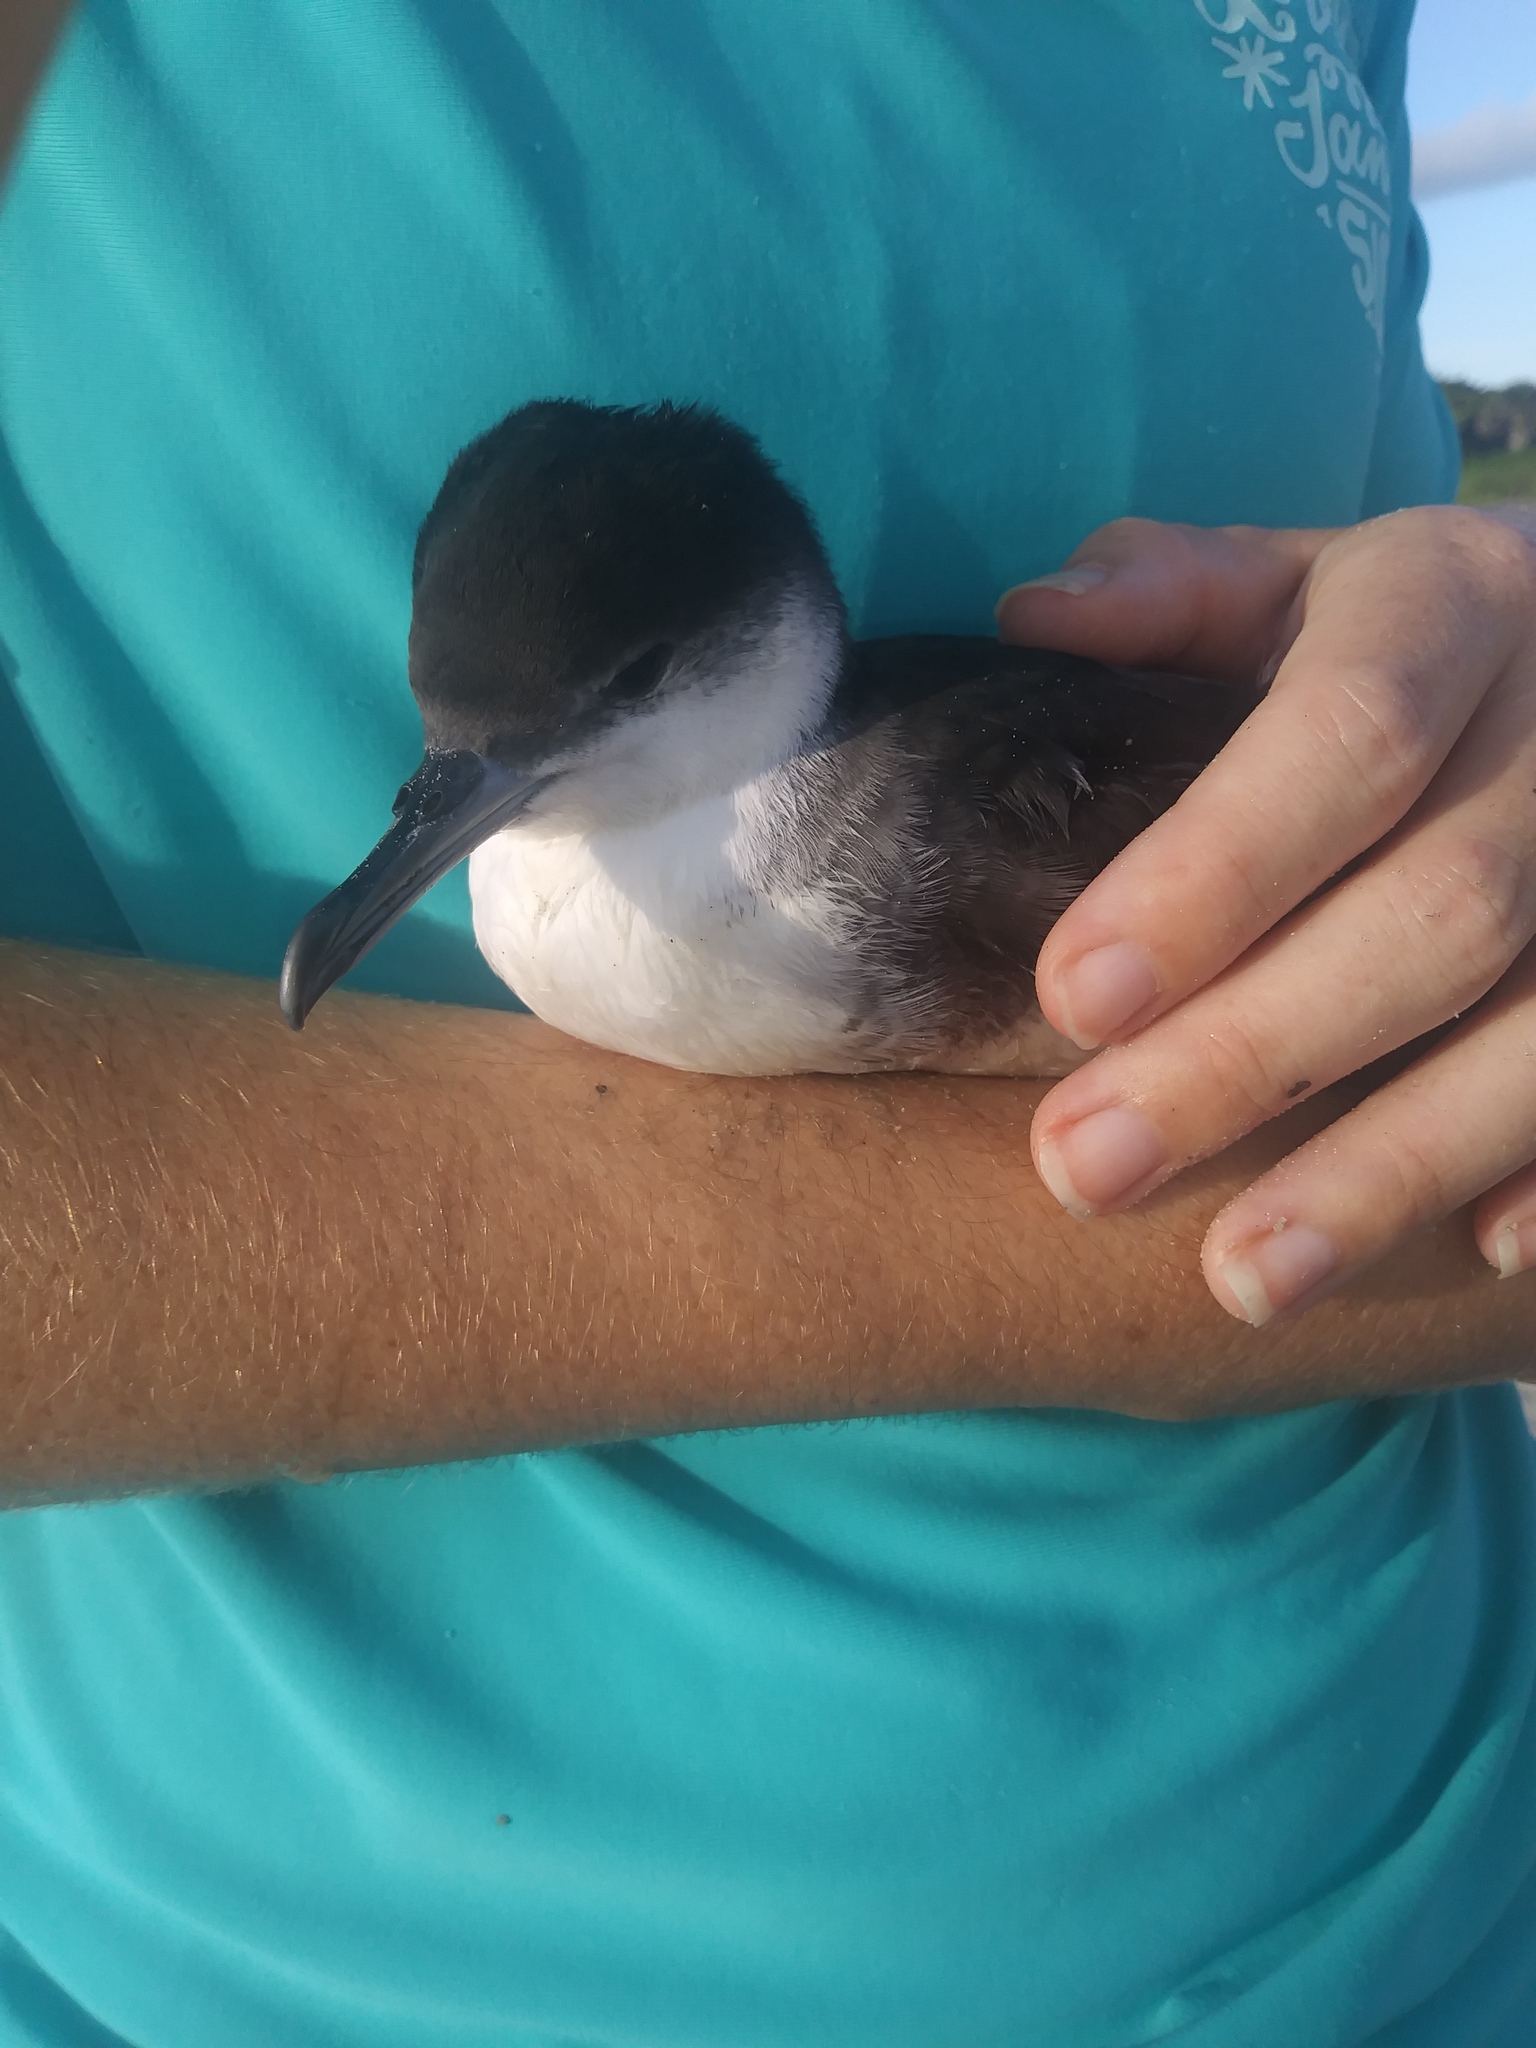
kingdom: Animalia
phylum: Chordata
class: Aves
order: Procellariiformes
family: Procellariidae
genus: Puffinus
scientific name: Puffinus lherminieri
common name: Audubon's shearwater
